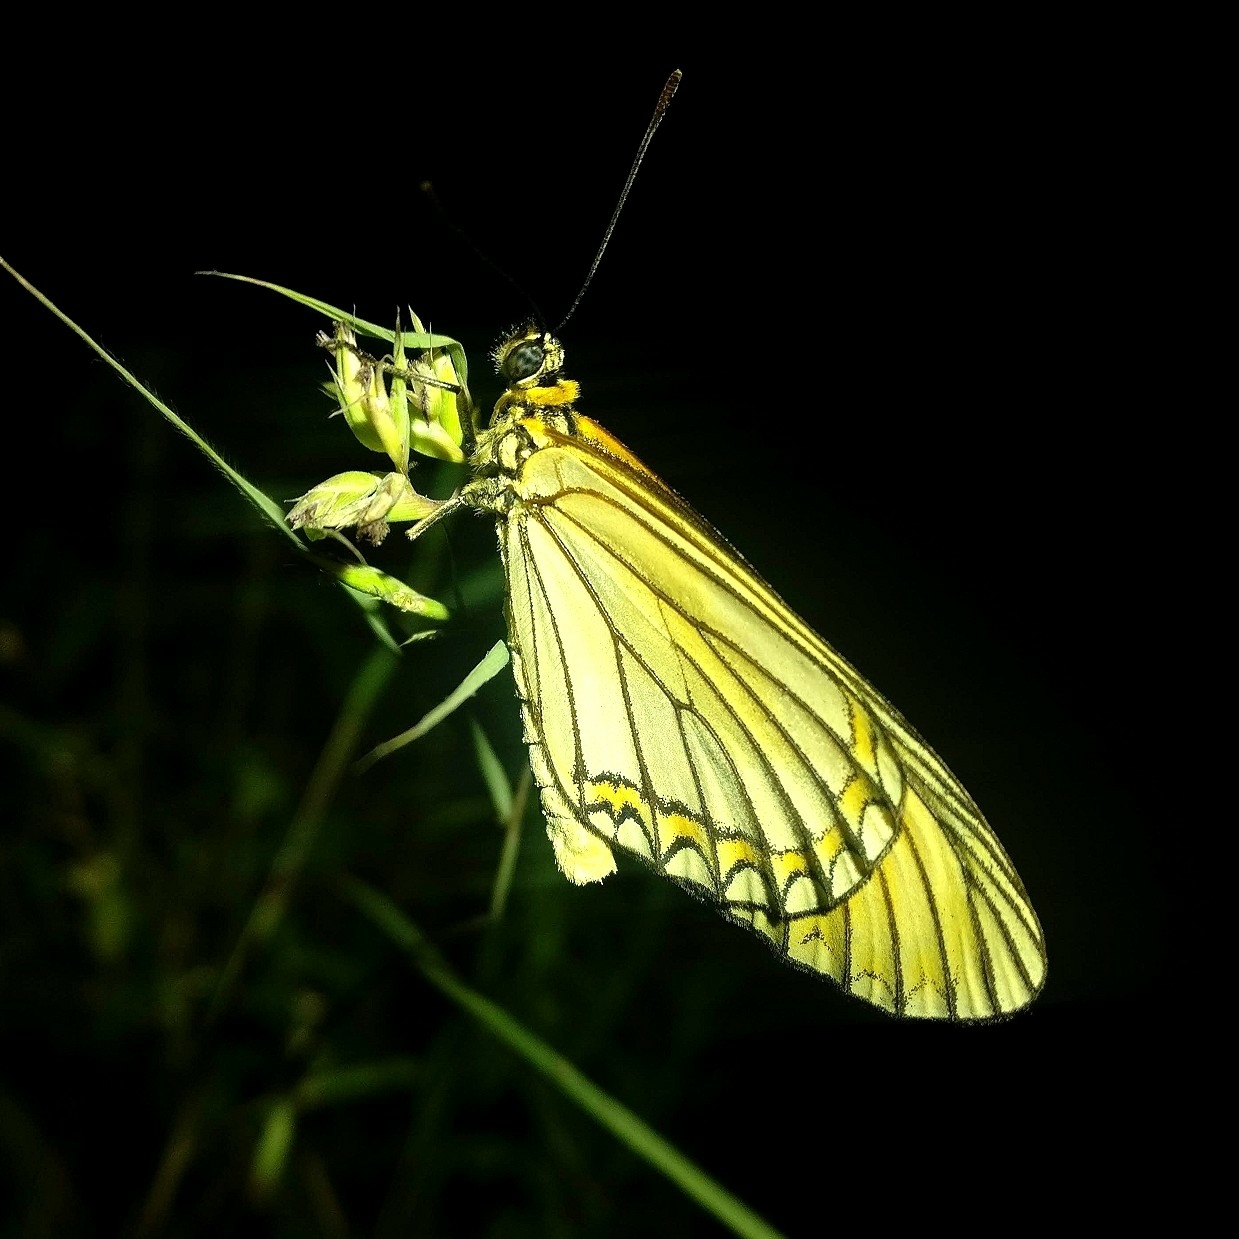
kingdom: Animalia
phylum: Arthropoda
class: Insecta
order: Lepidoptera
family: Nymphalidae
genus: Acraea
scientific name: Acraea Telchinia issoria
